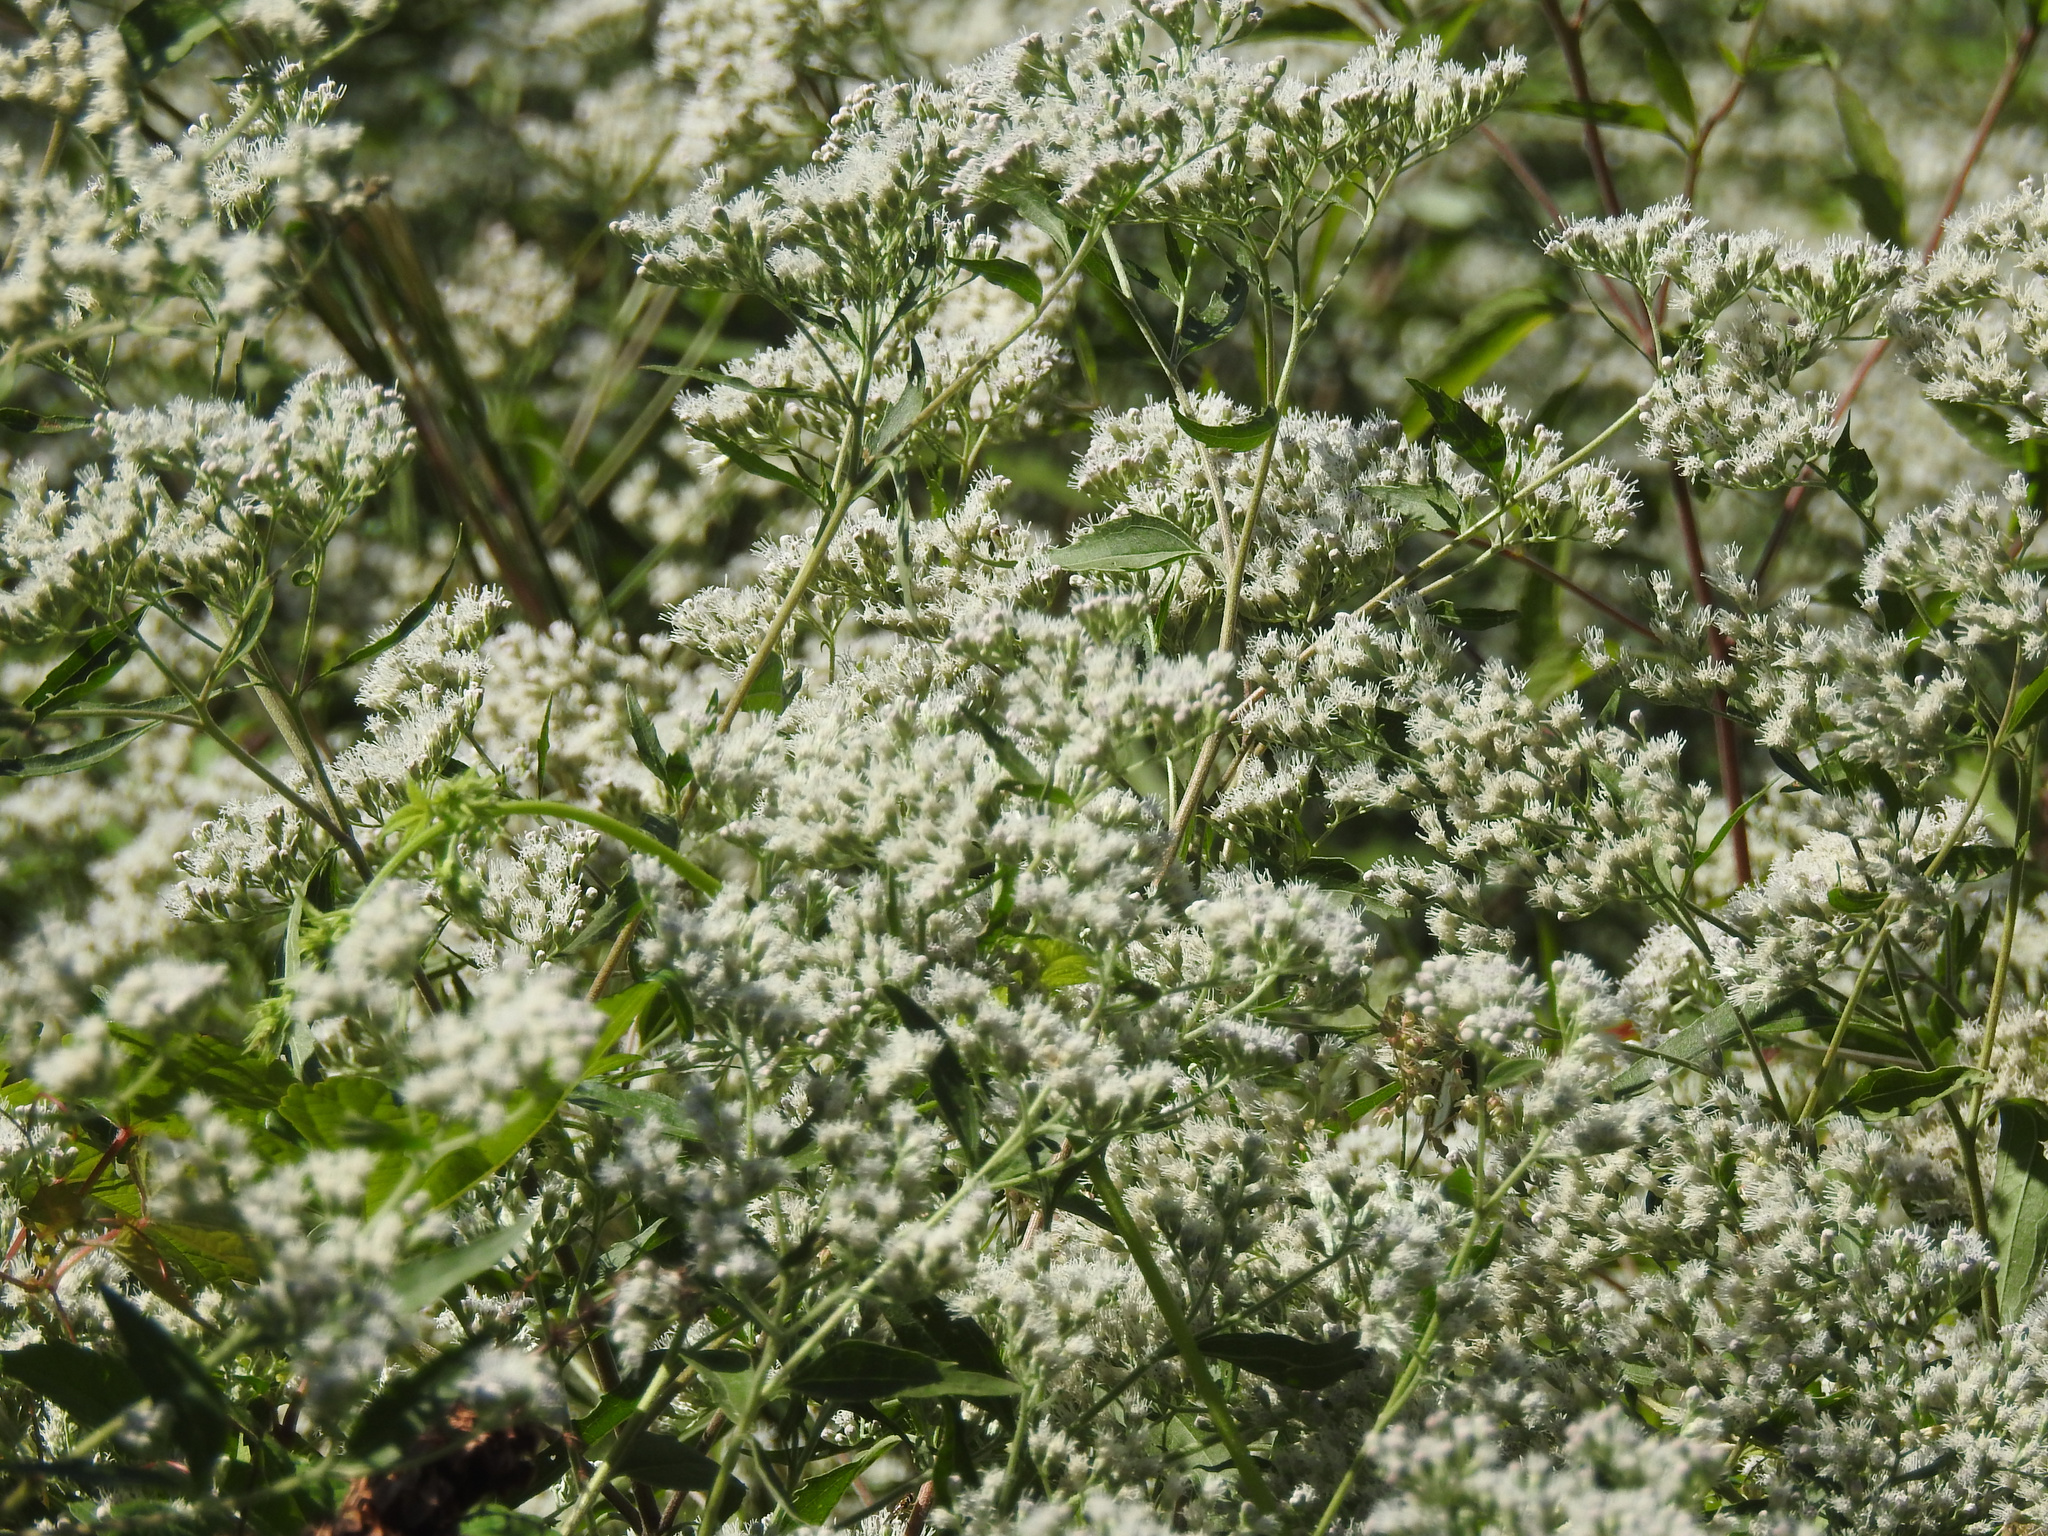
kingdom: Plantae
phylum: Tracheophyta
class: Magnoliopsida
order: Asterales
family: Asteraceae
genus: Eupatorium
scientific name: Eupatorium serotinum
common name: Late boneset
